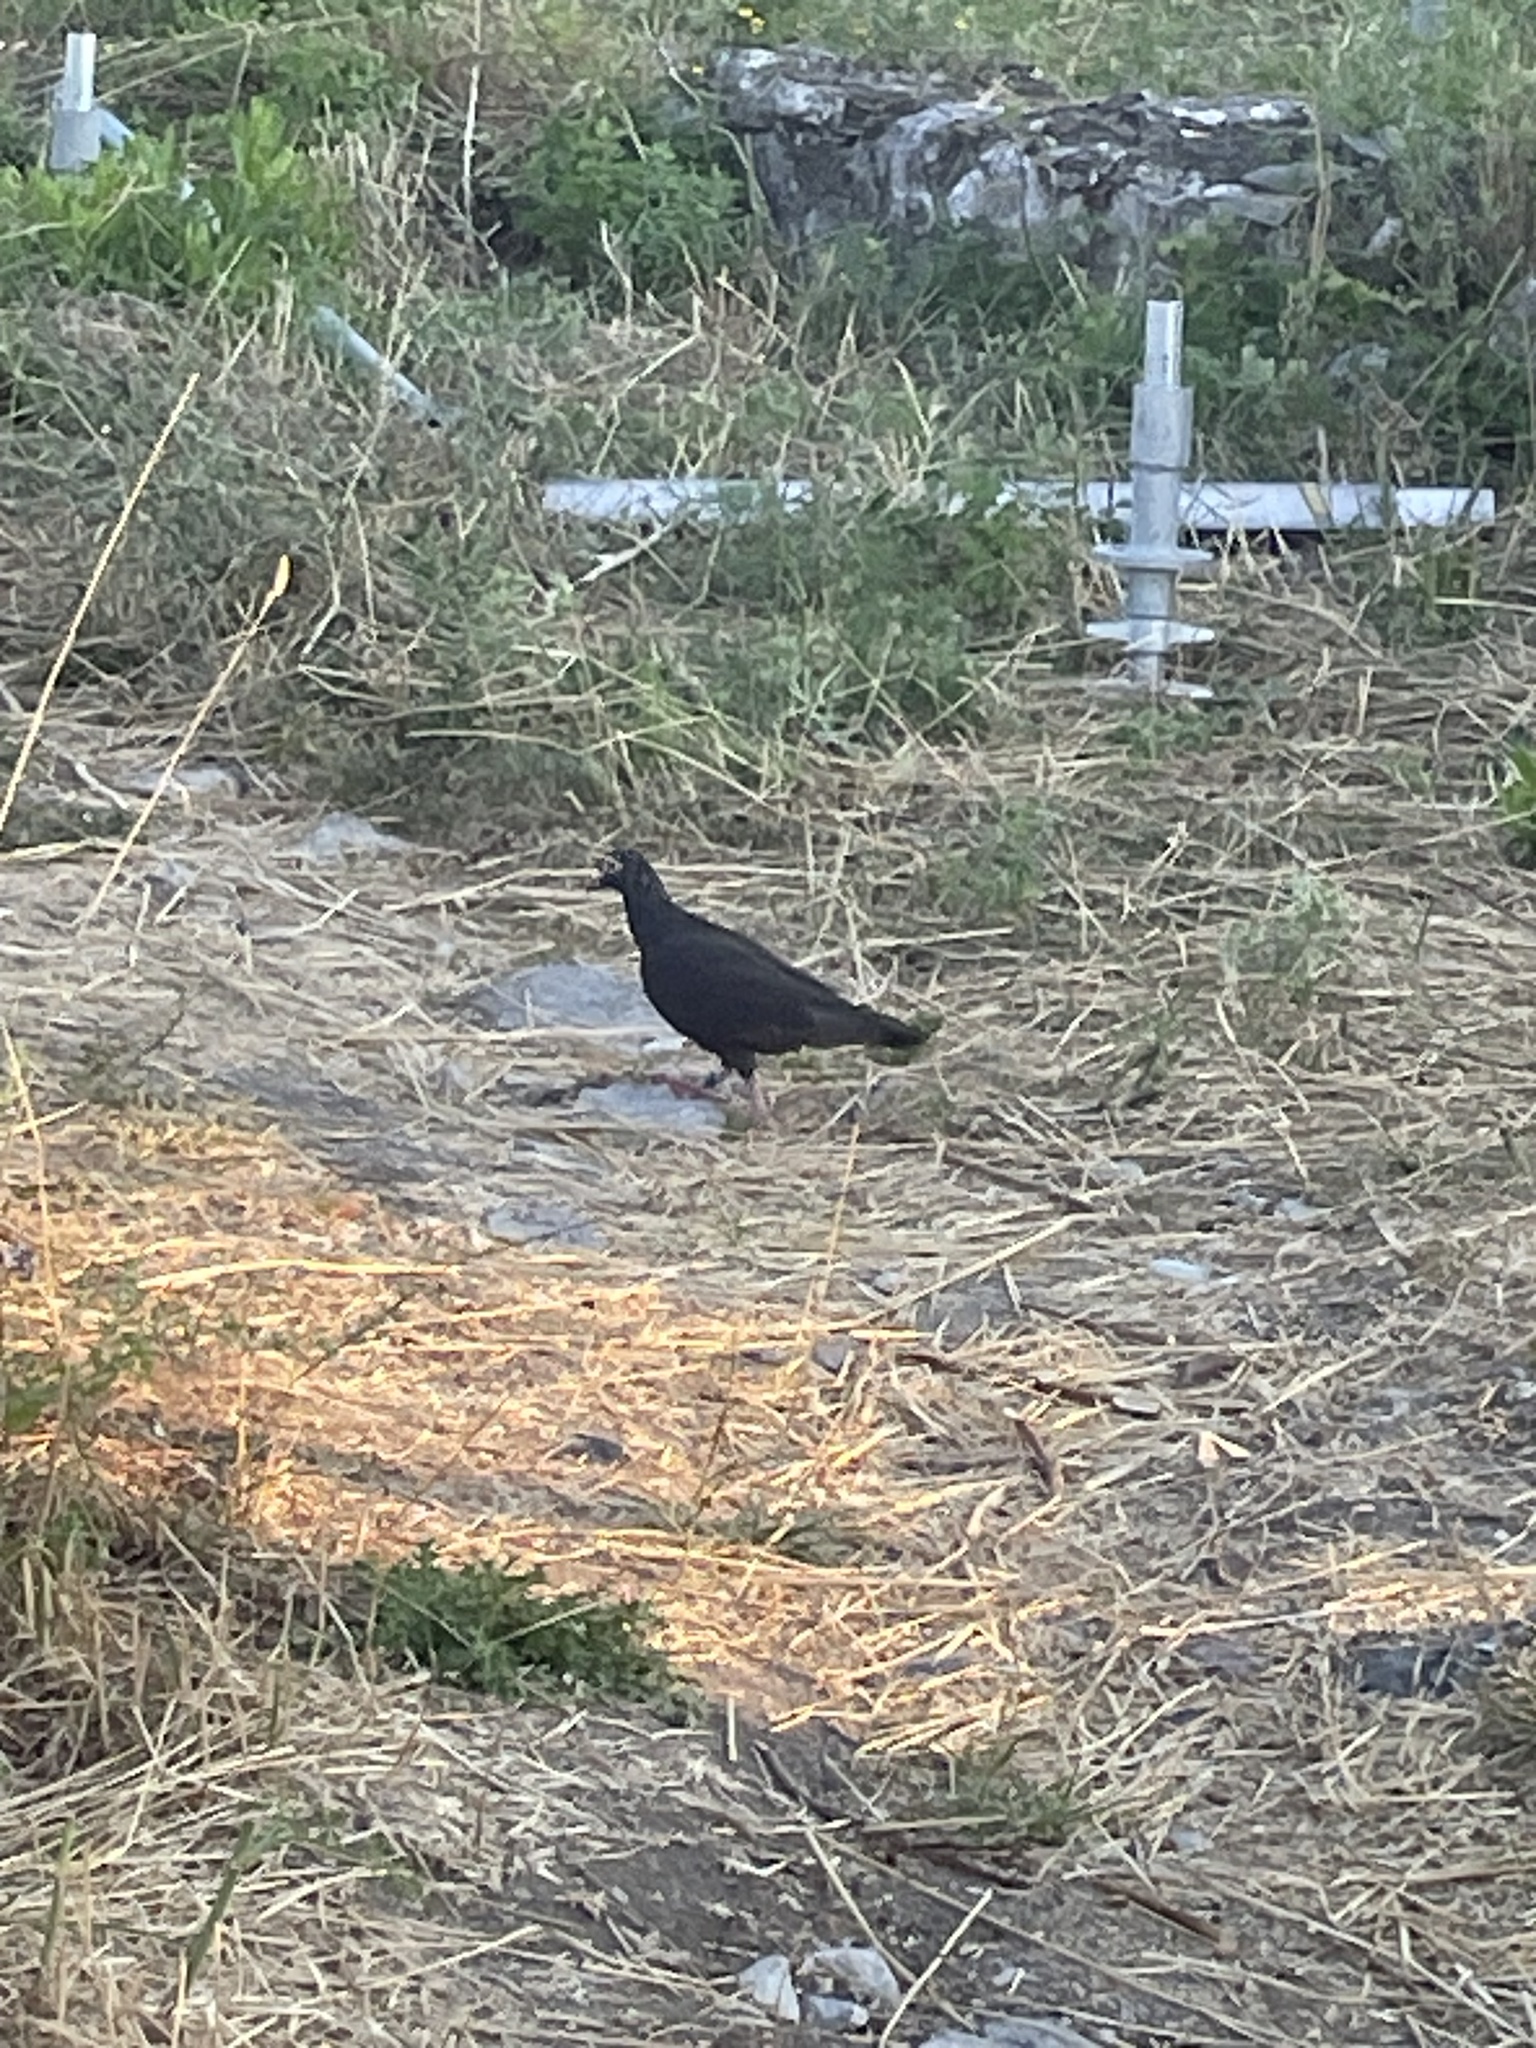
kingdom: Animalia
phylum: Chordata
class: Aves
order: Columbiformes
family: Columbidae
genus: Columba
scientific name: Columba livia
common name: Rock pigeon
